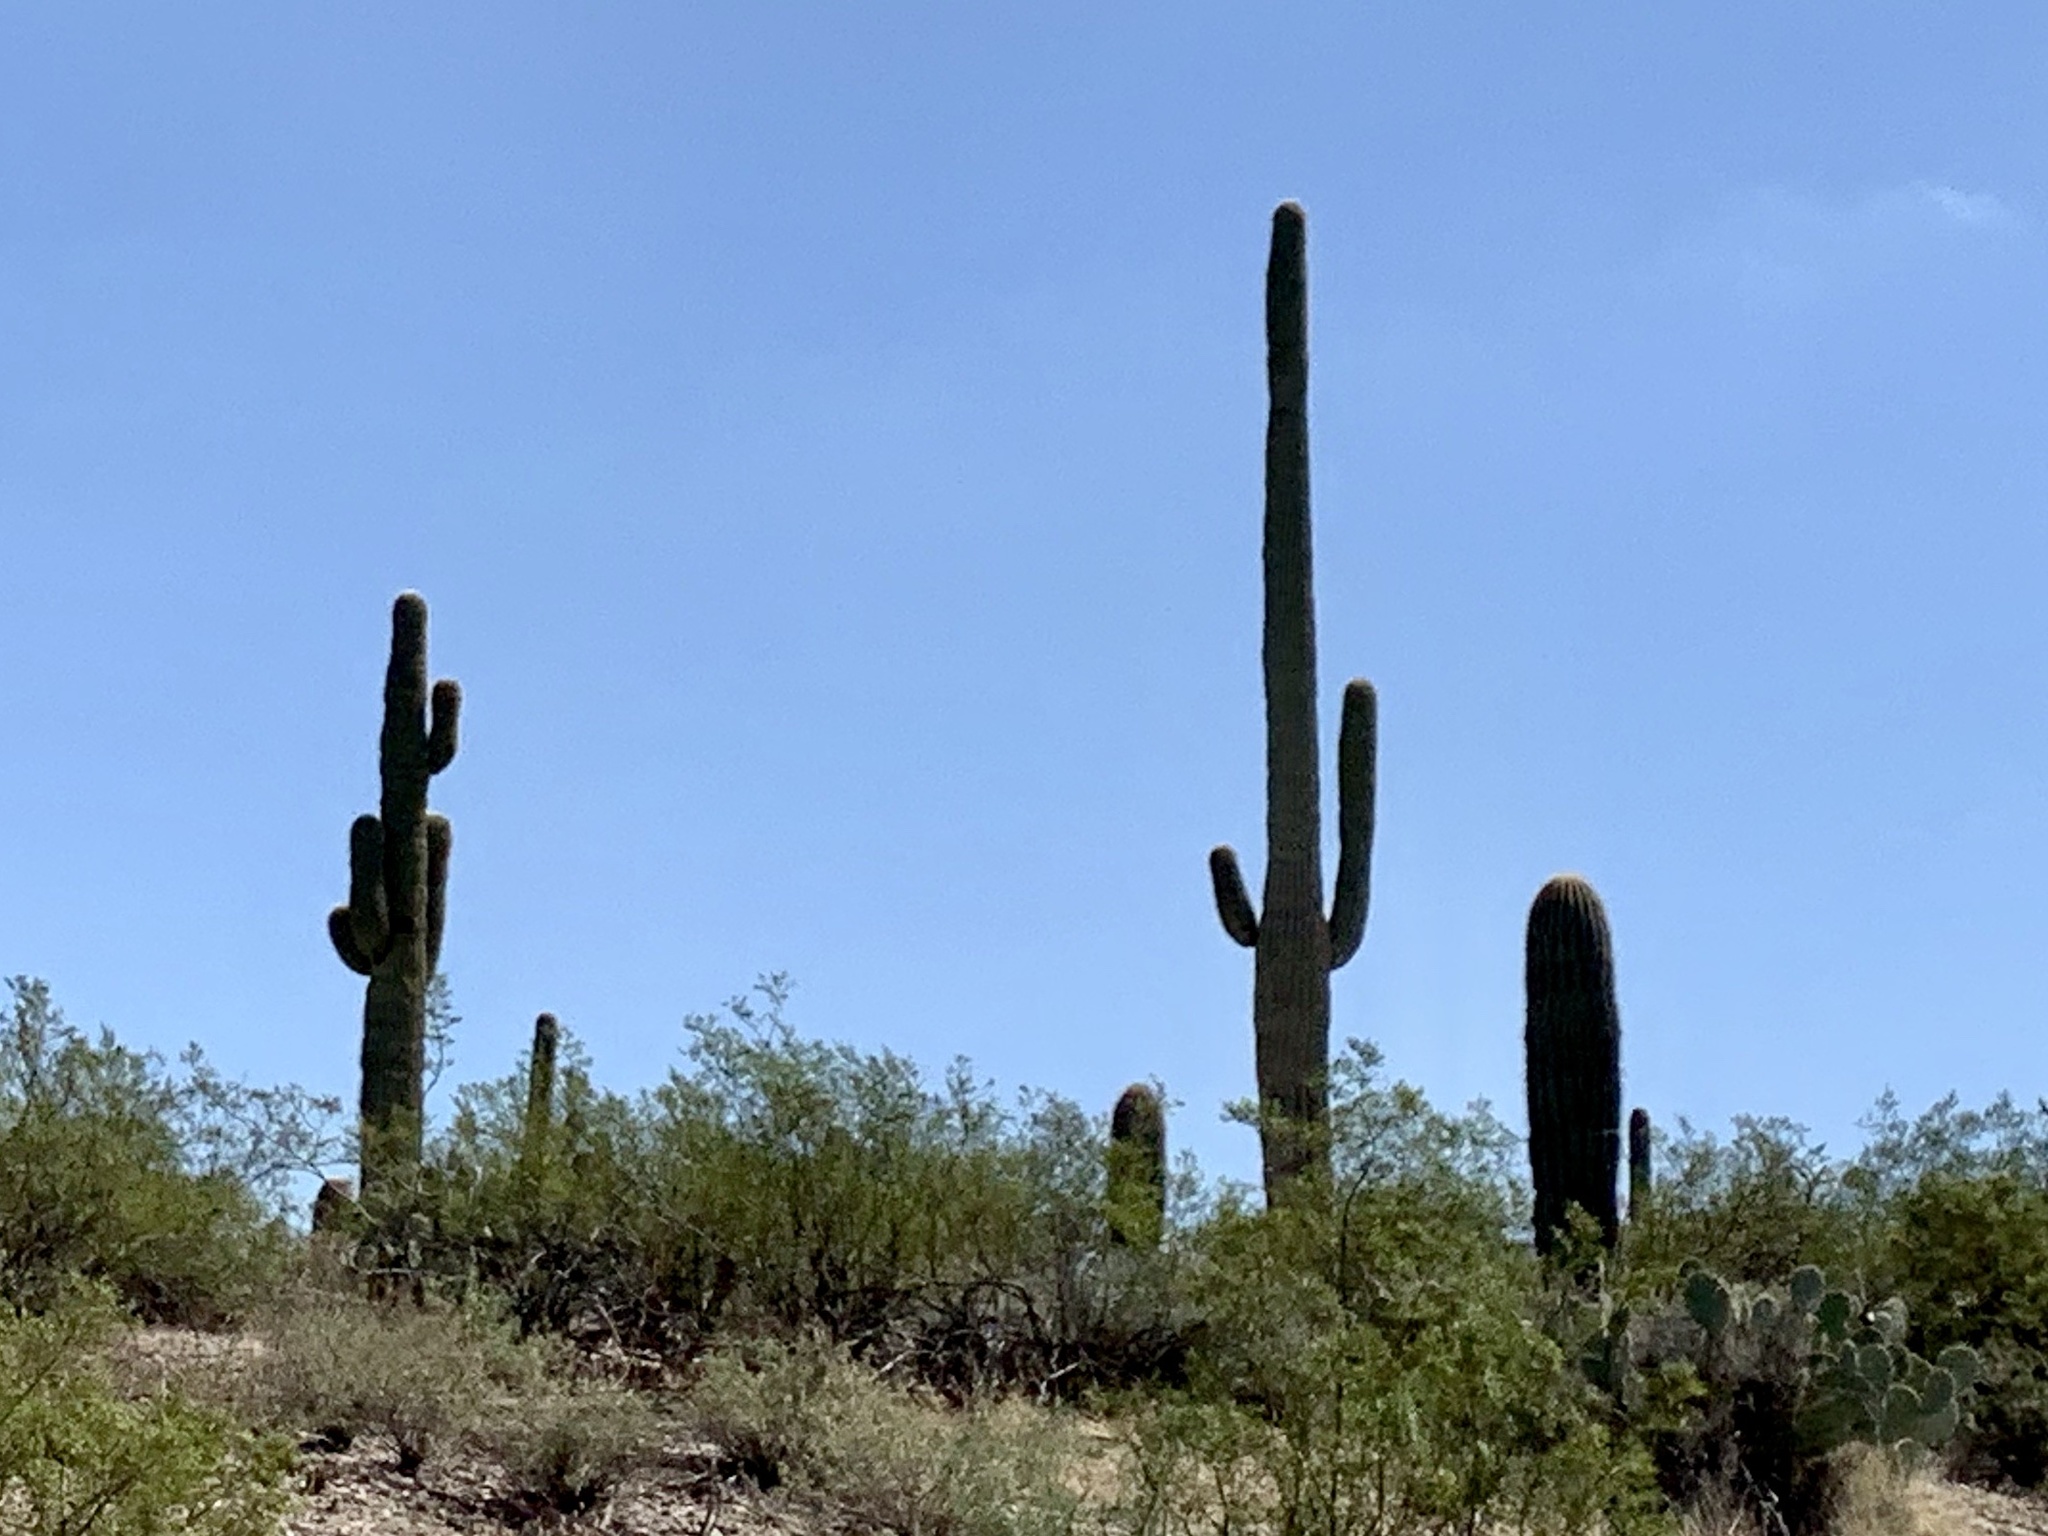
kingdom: Plantae
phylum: Tracheophyta
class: Magnoliopsida
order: Caryophyllales
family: Cactaceae
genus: Carnegiea
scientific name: Carnegiea gigantea
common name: Saguaro
